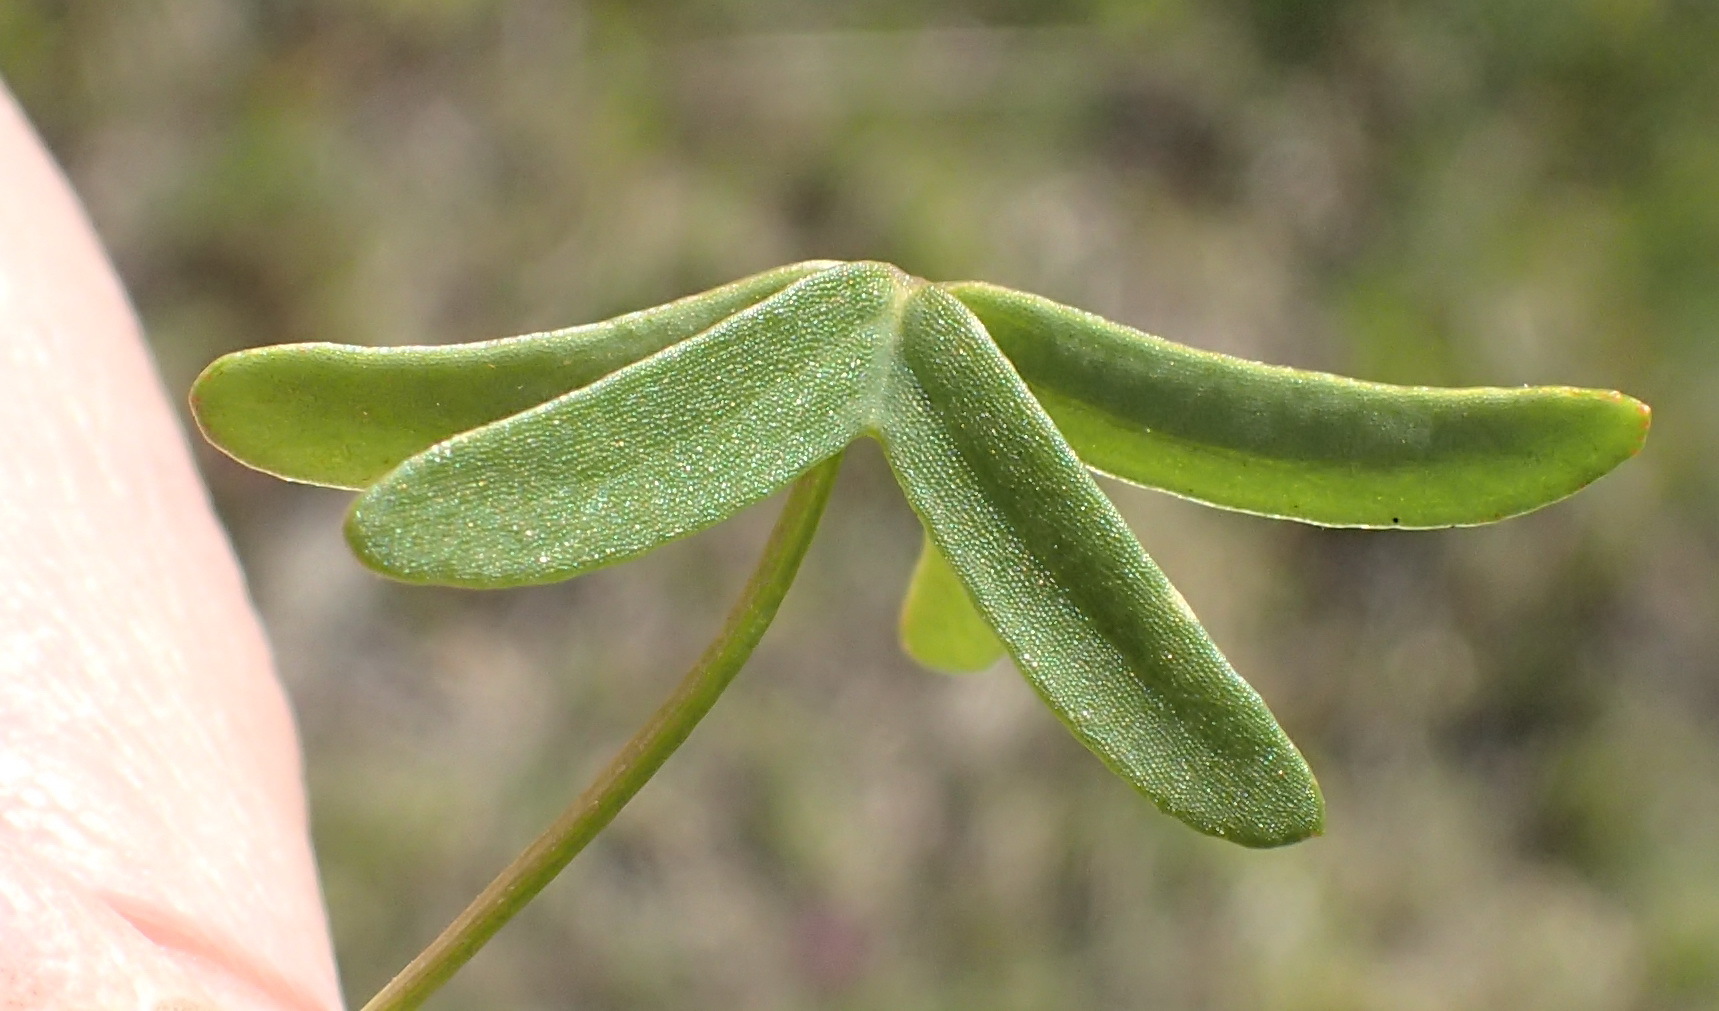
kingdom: Plantae
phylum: Tracheophyta
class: Magnoliopsida
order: Oxalidales
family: Oxalidaceae
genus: Oxalis
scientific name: Oxalis stellata
